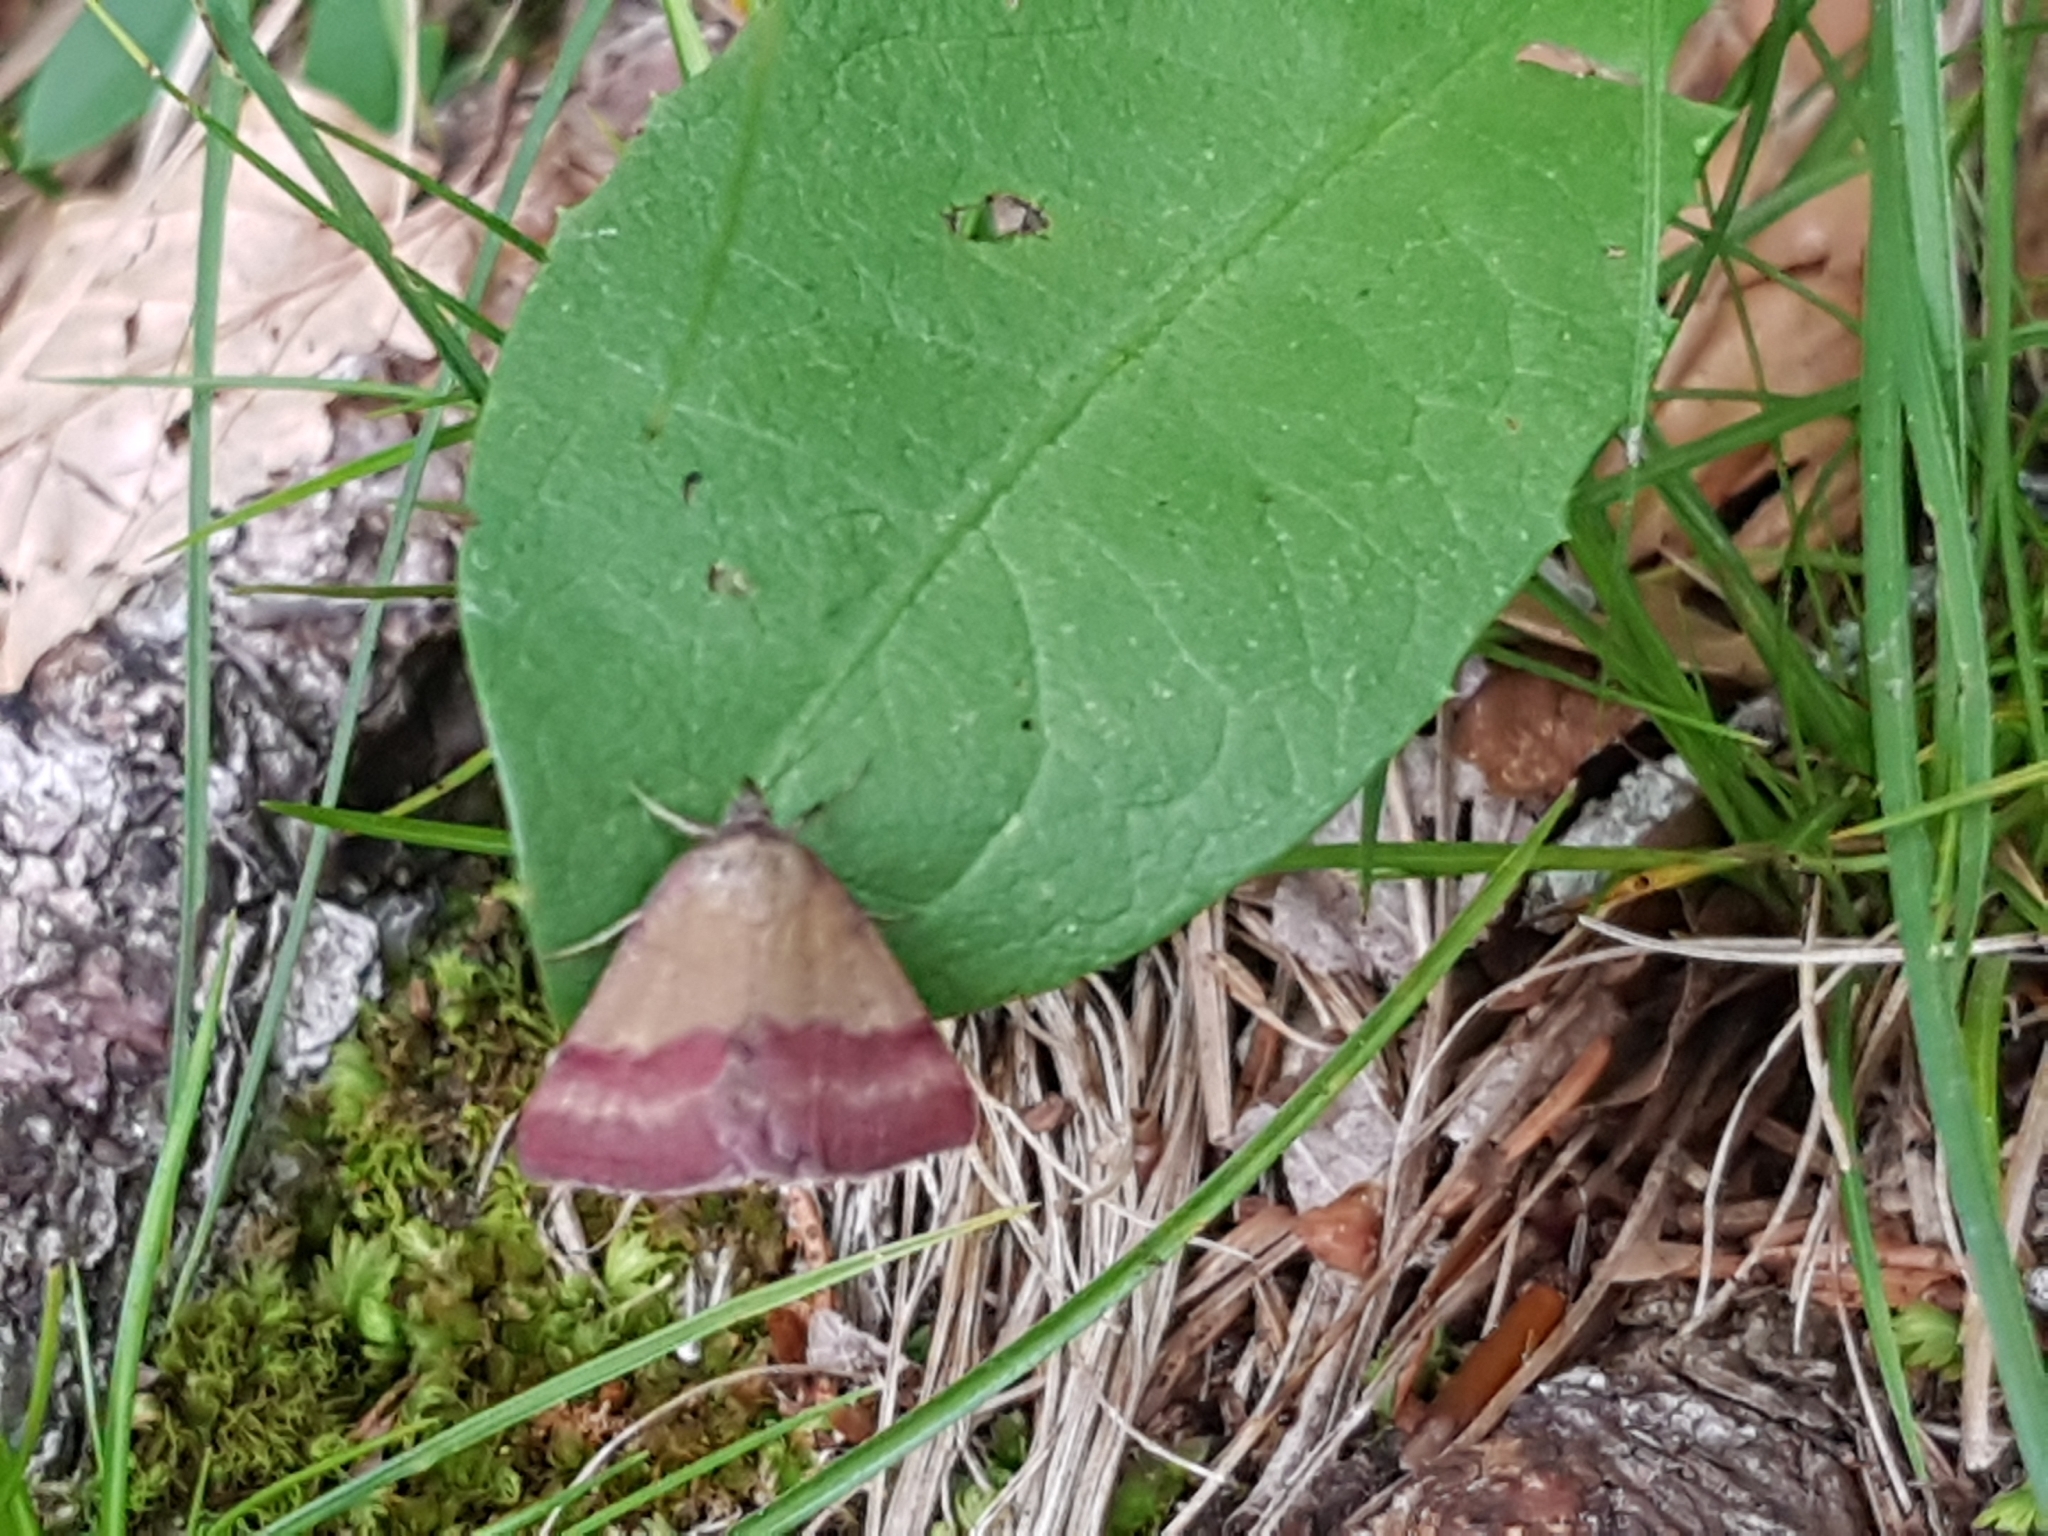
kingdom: Animalia
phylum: Arthropoda
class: Insecta
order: Lepidoptera
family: Erebidae
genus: Phytometra
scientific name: Phytometra viridaria
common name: Small purple-barred
